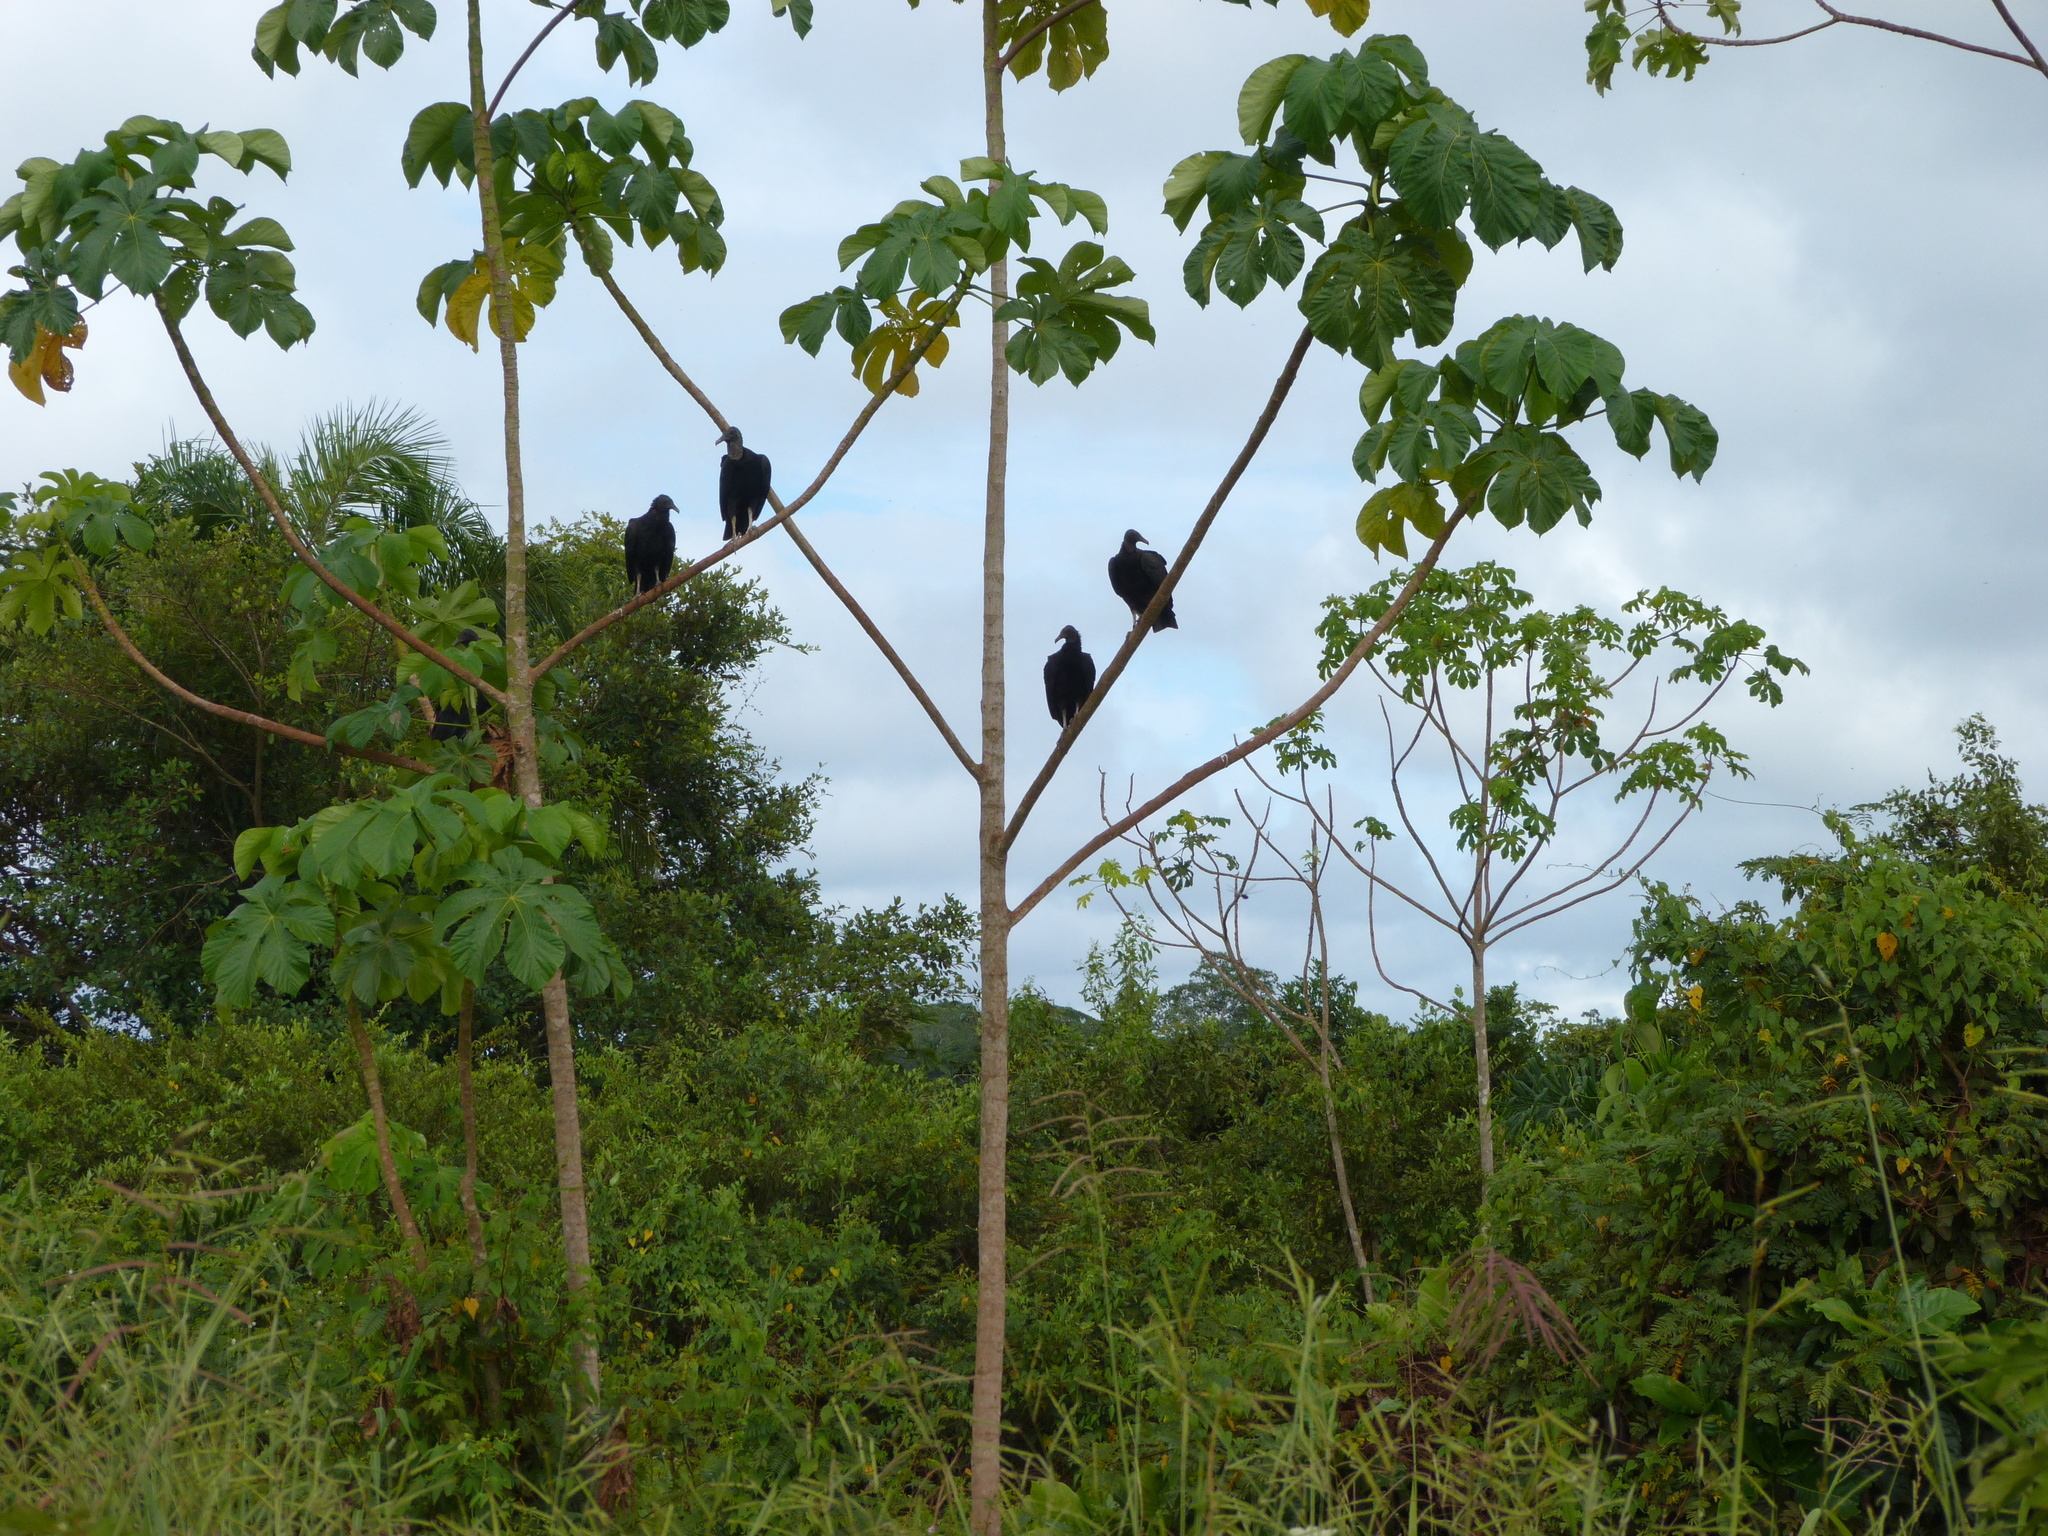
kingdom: Animalia
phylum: Chordata
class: Aves
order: Accipitriformes
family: Cathartidae
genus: Coragyps
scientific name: Coragyps atratus
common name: Black vulture
